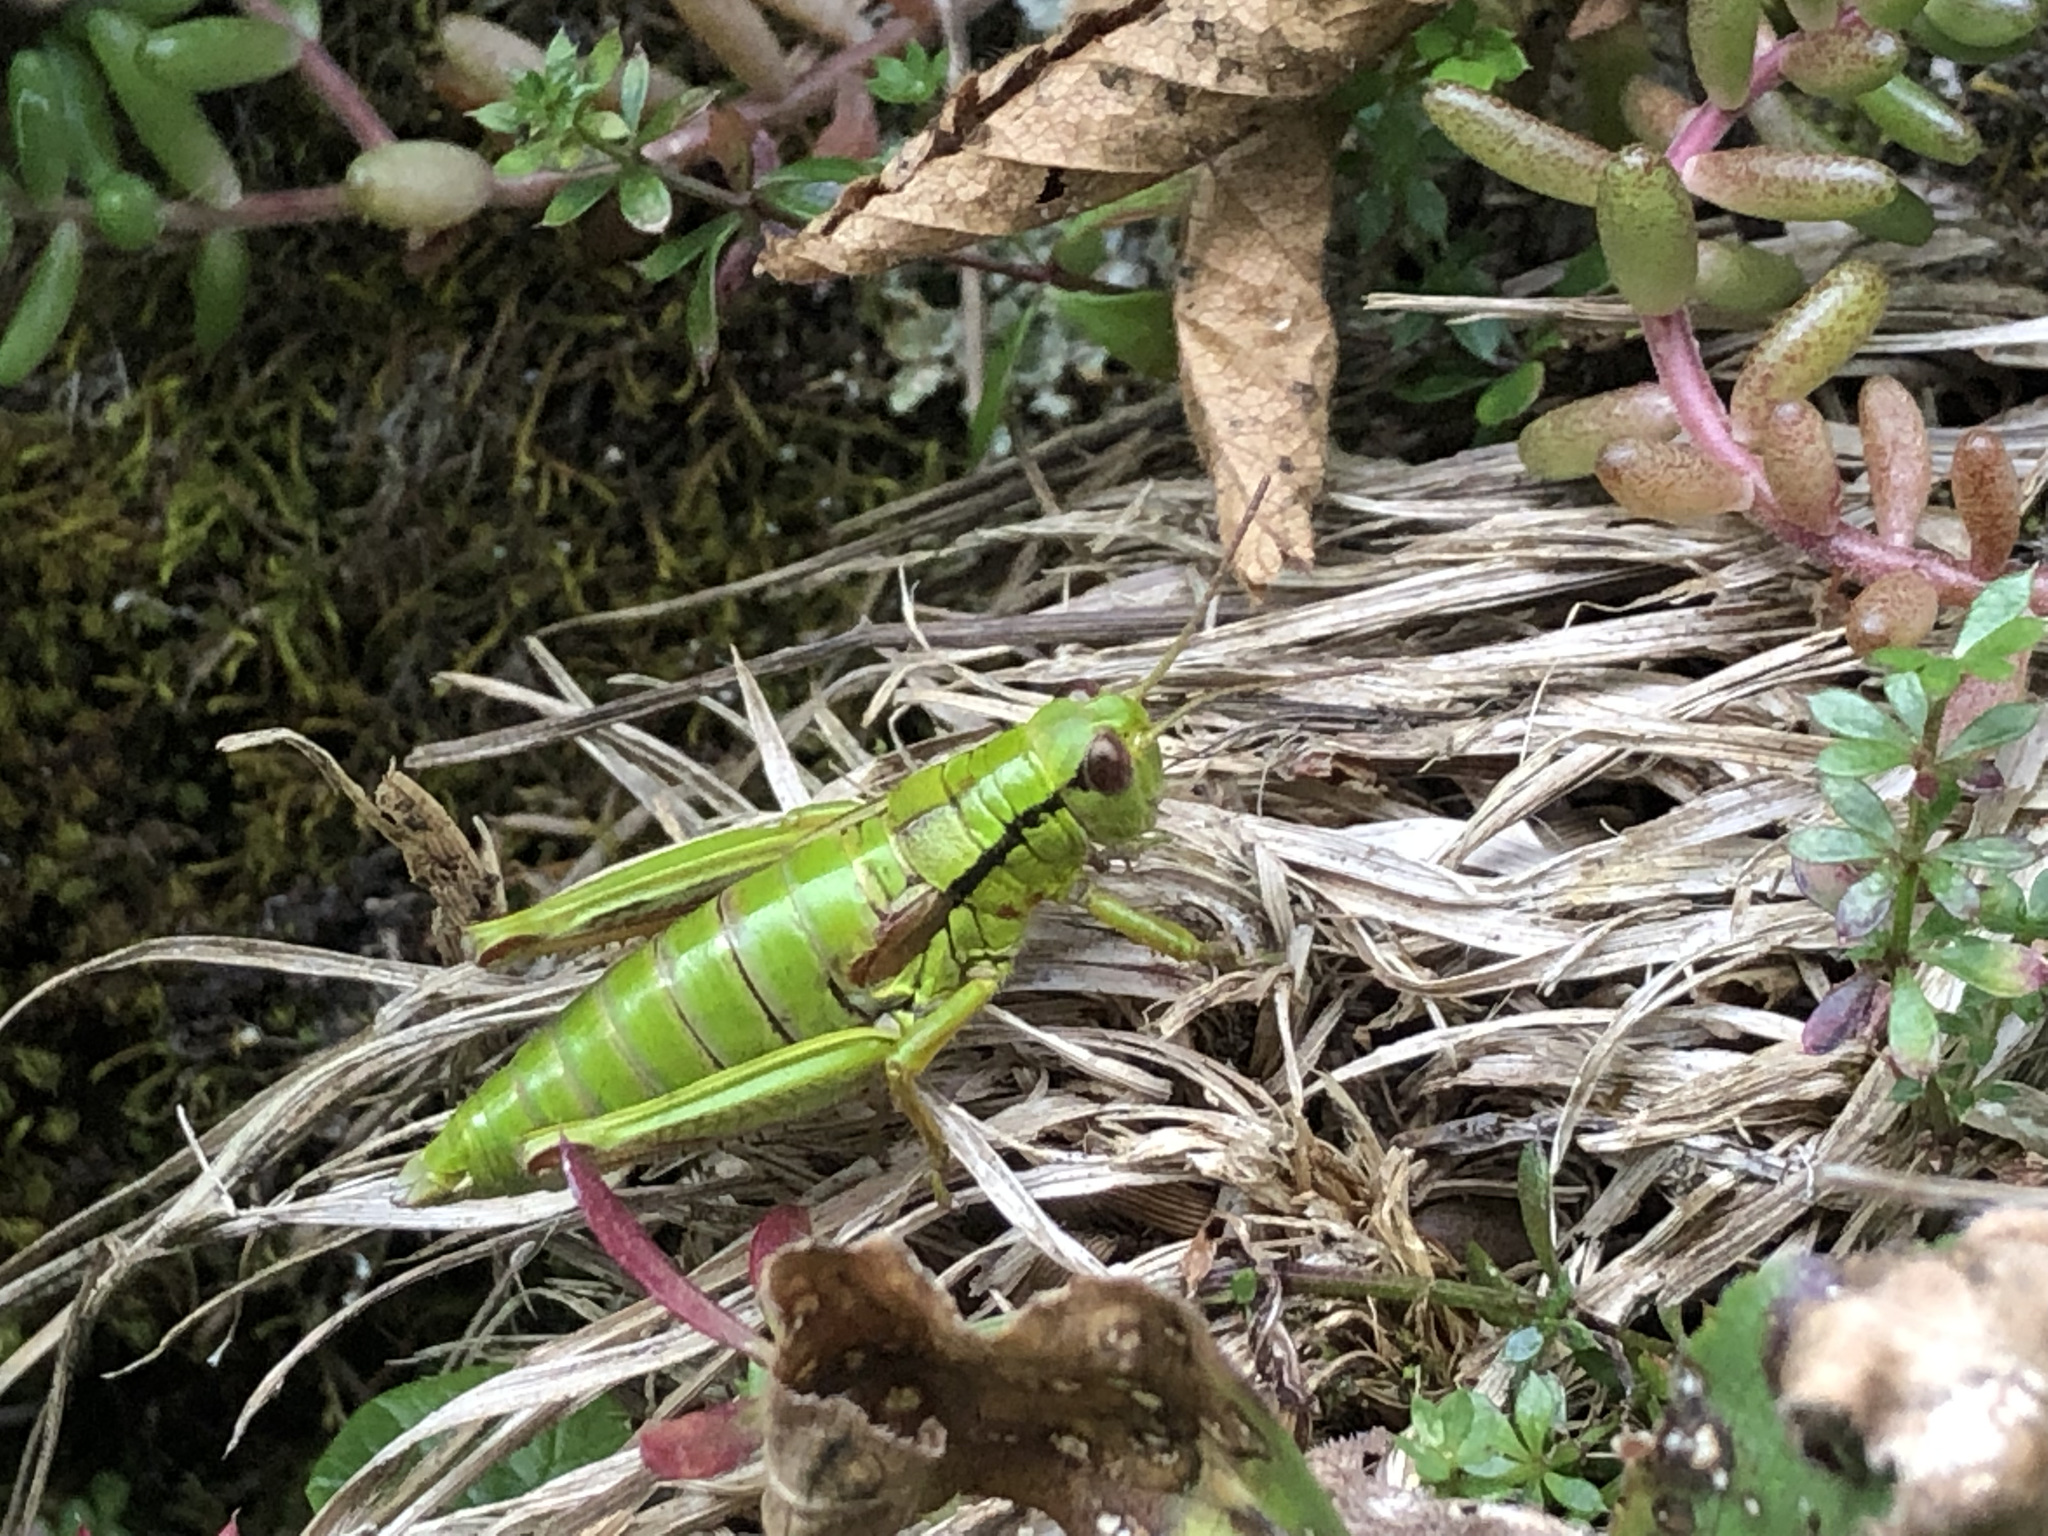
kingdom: Animalia
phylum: Arthropoda
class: Insecta
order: Orthoptera
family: Acrididae
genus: Miramella
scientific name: Miramella alpina
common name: Green mountain grasshopper
